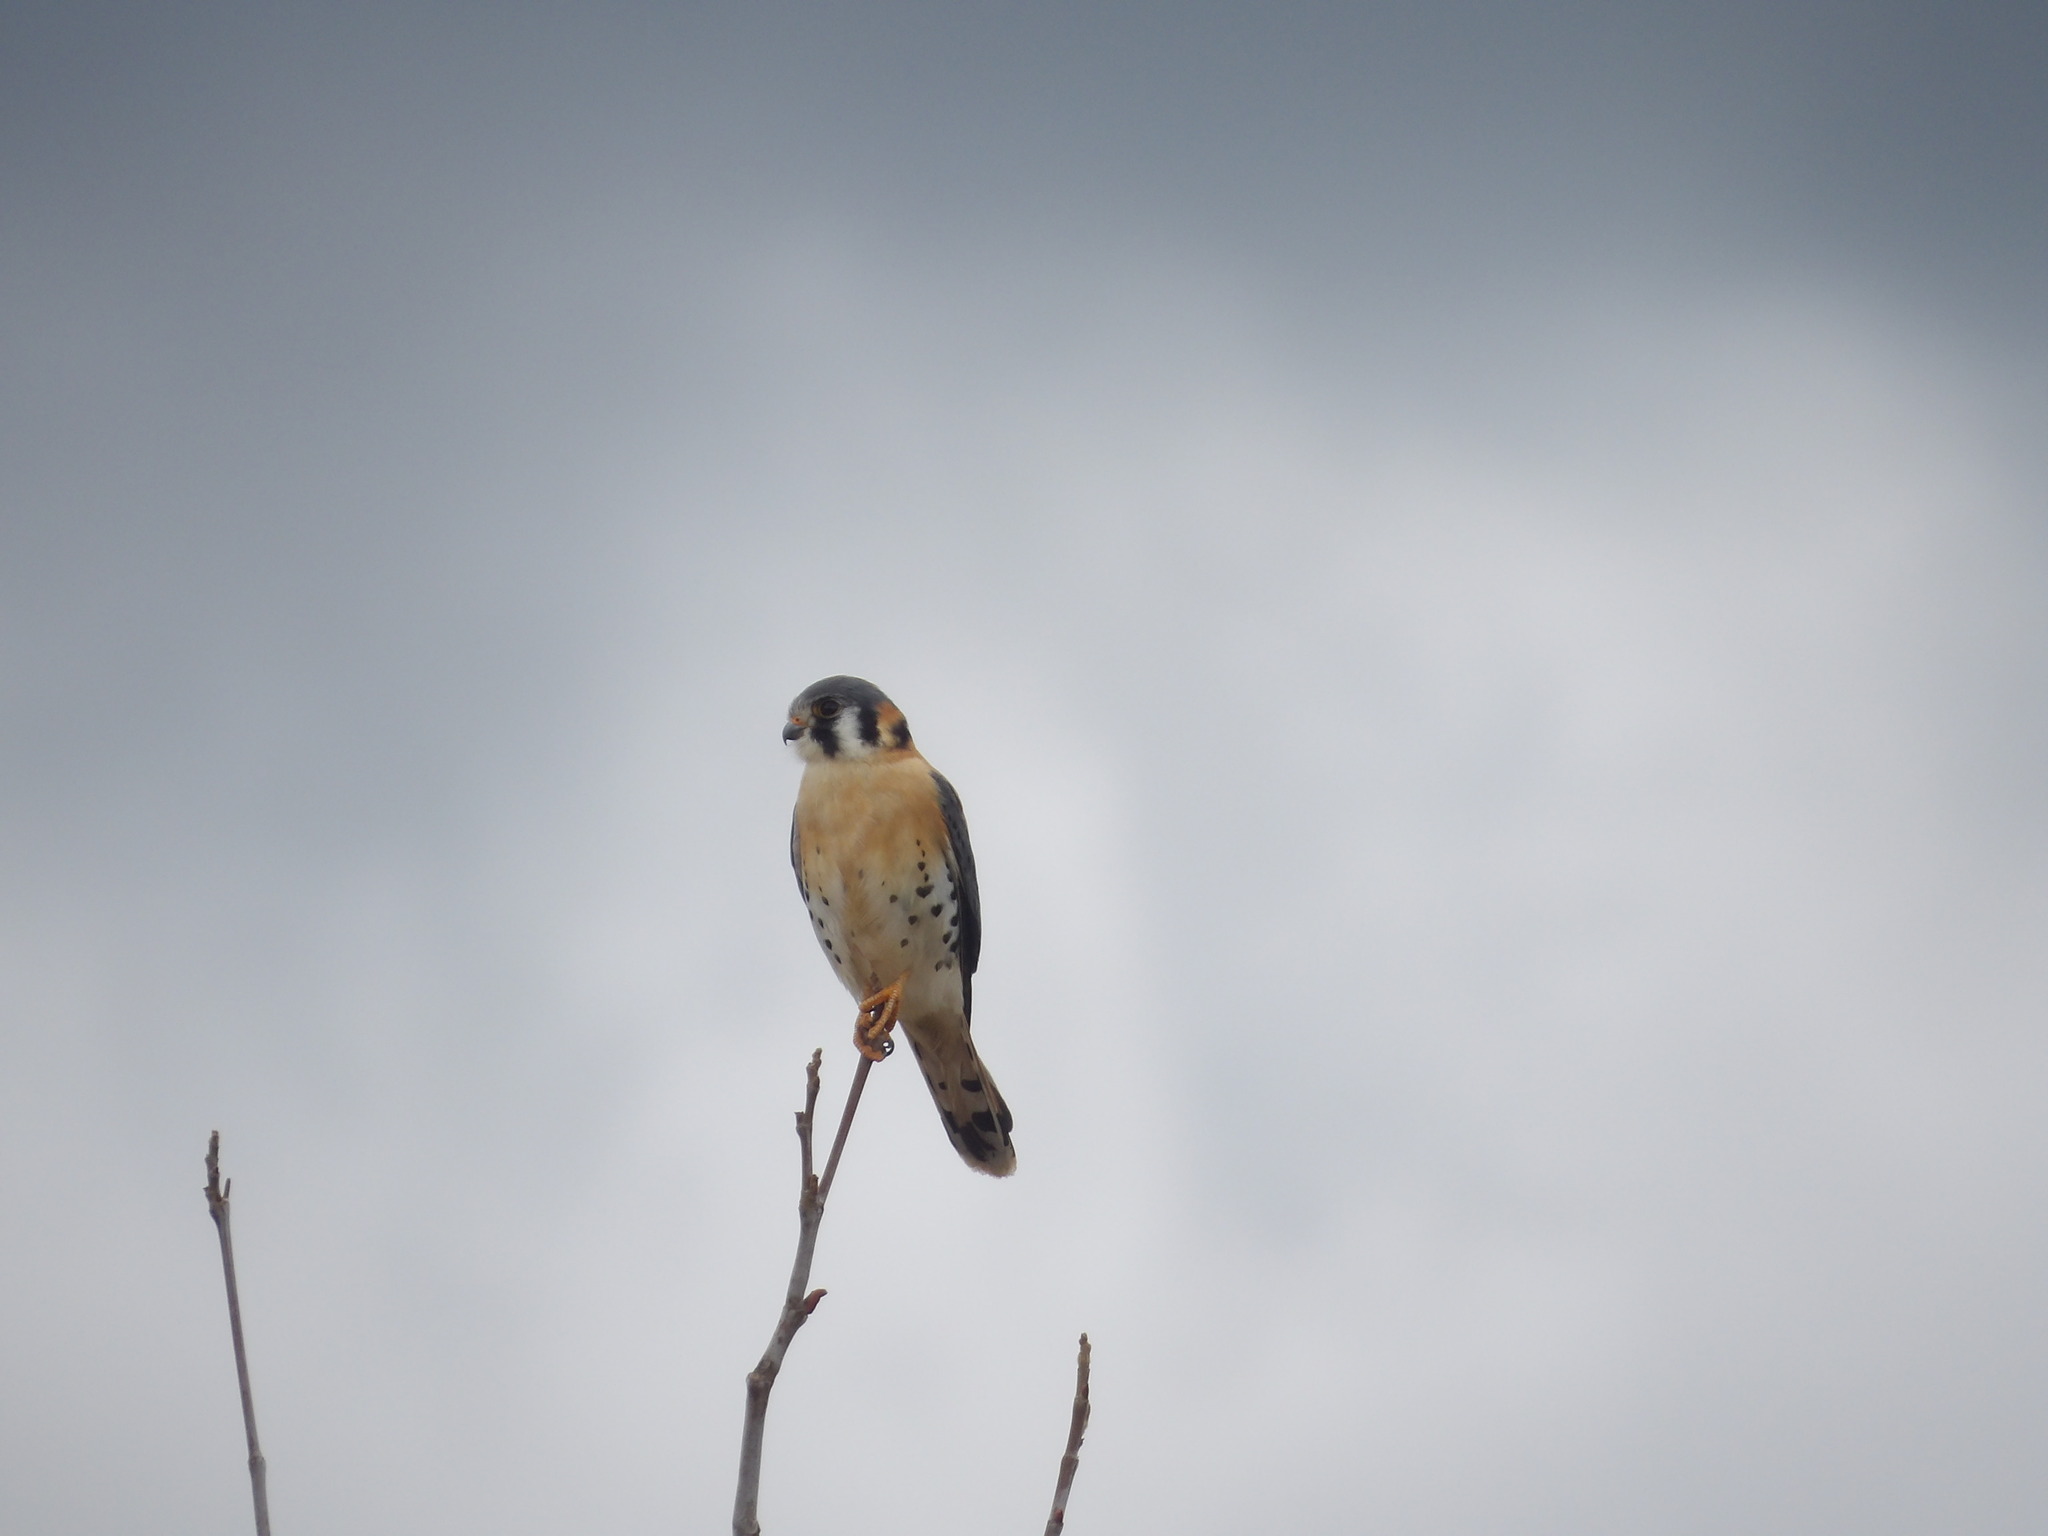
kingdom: Animalia
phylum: Chordata
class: Aves
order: Falconiformes
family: Falconidae
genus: Falco
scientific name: Falco sparverius
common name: American kestrel
